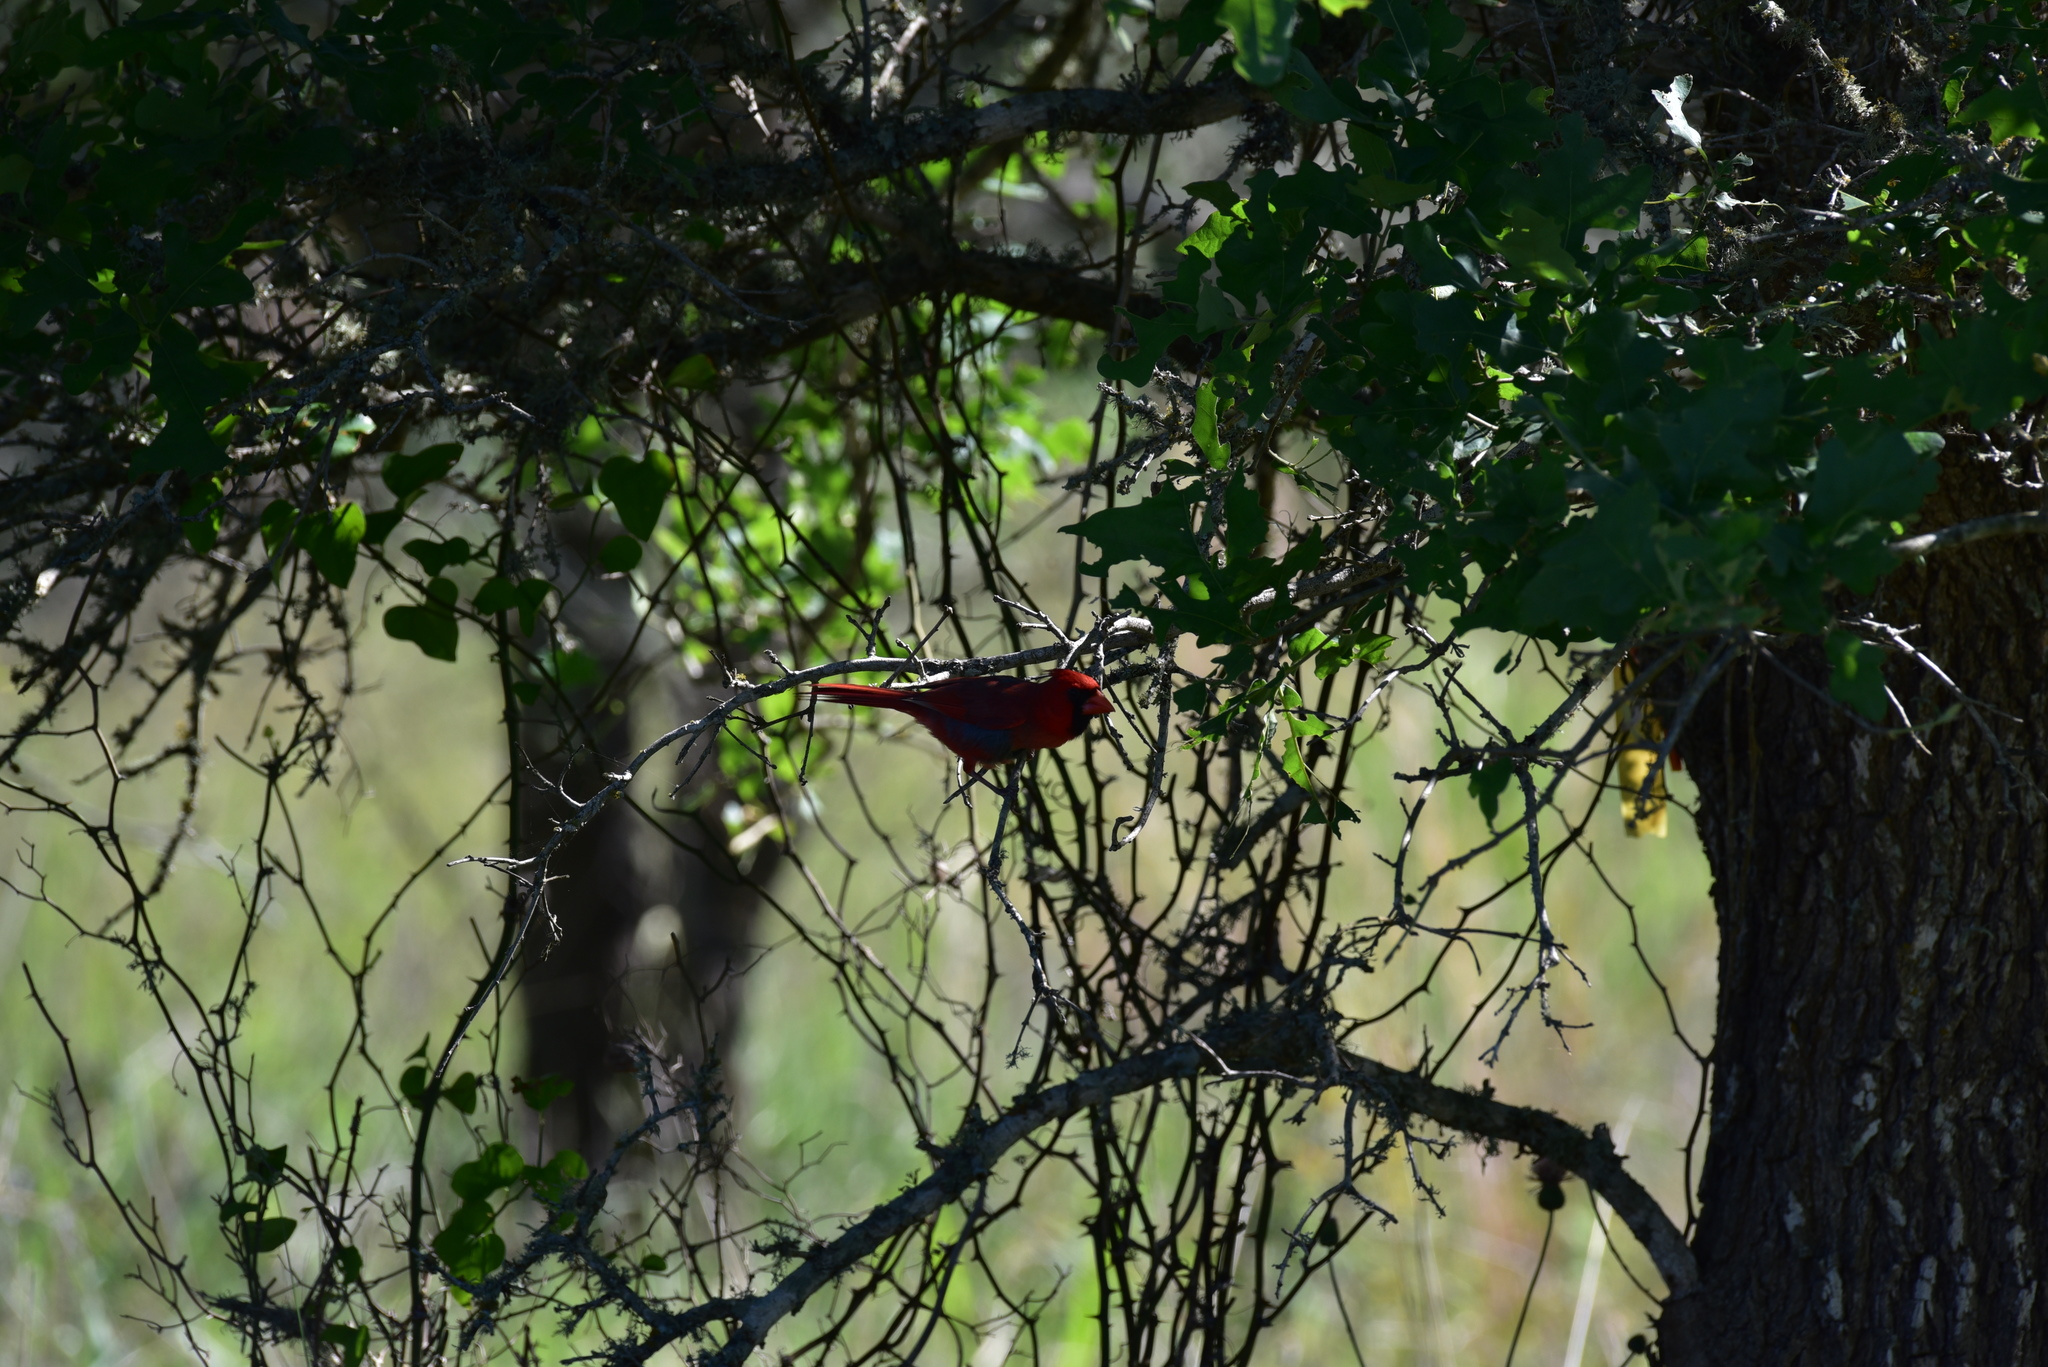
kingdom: Animalia
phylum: Chordata
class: Aves
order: Passeriformes
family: Cardinalidae
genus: Cardinalis
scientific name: Cardinalis cardinalis
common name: Northern cardinal
